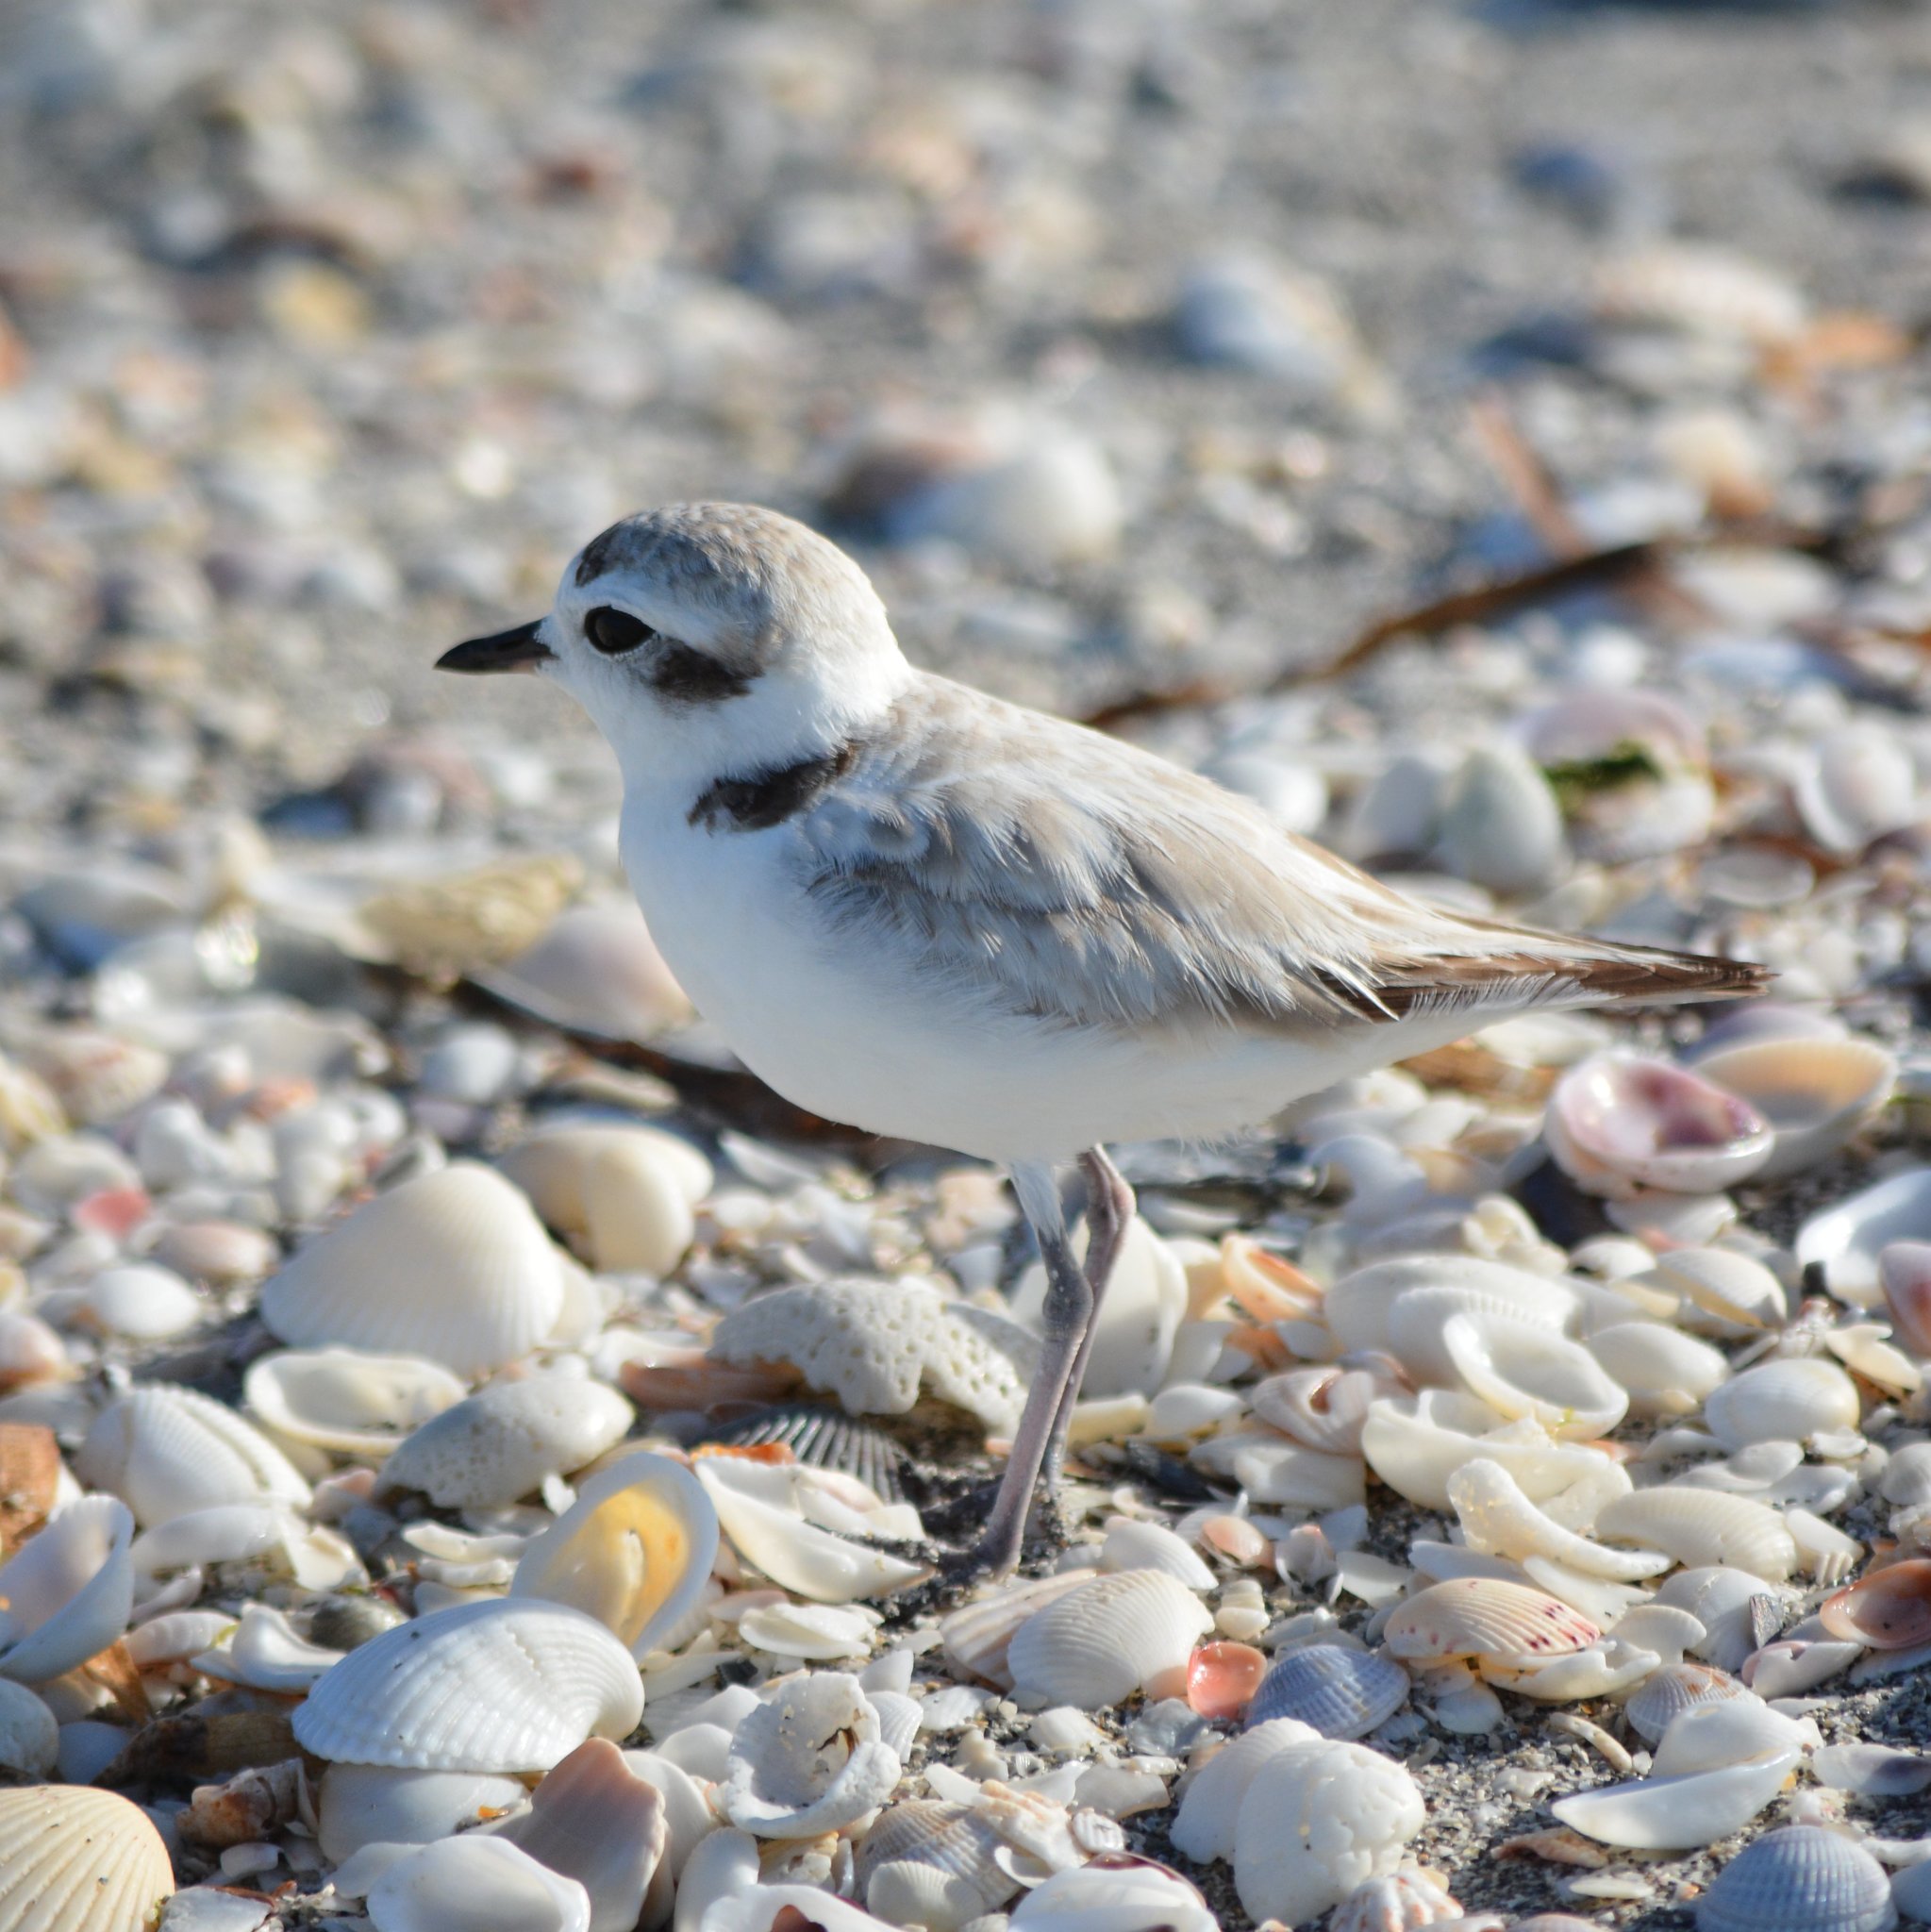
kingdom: Animalia
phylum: Chordata
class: Aves
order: Charadriiformes
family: Charadriidae
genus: Anarhynchus
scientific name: Anarhynchus
